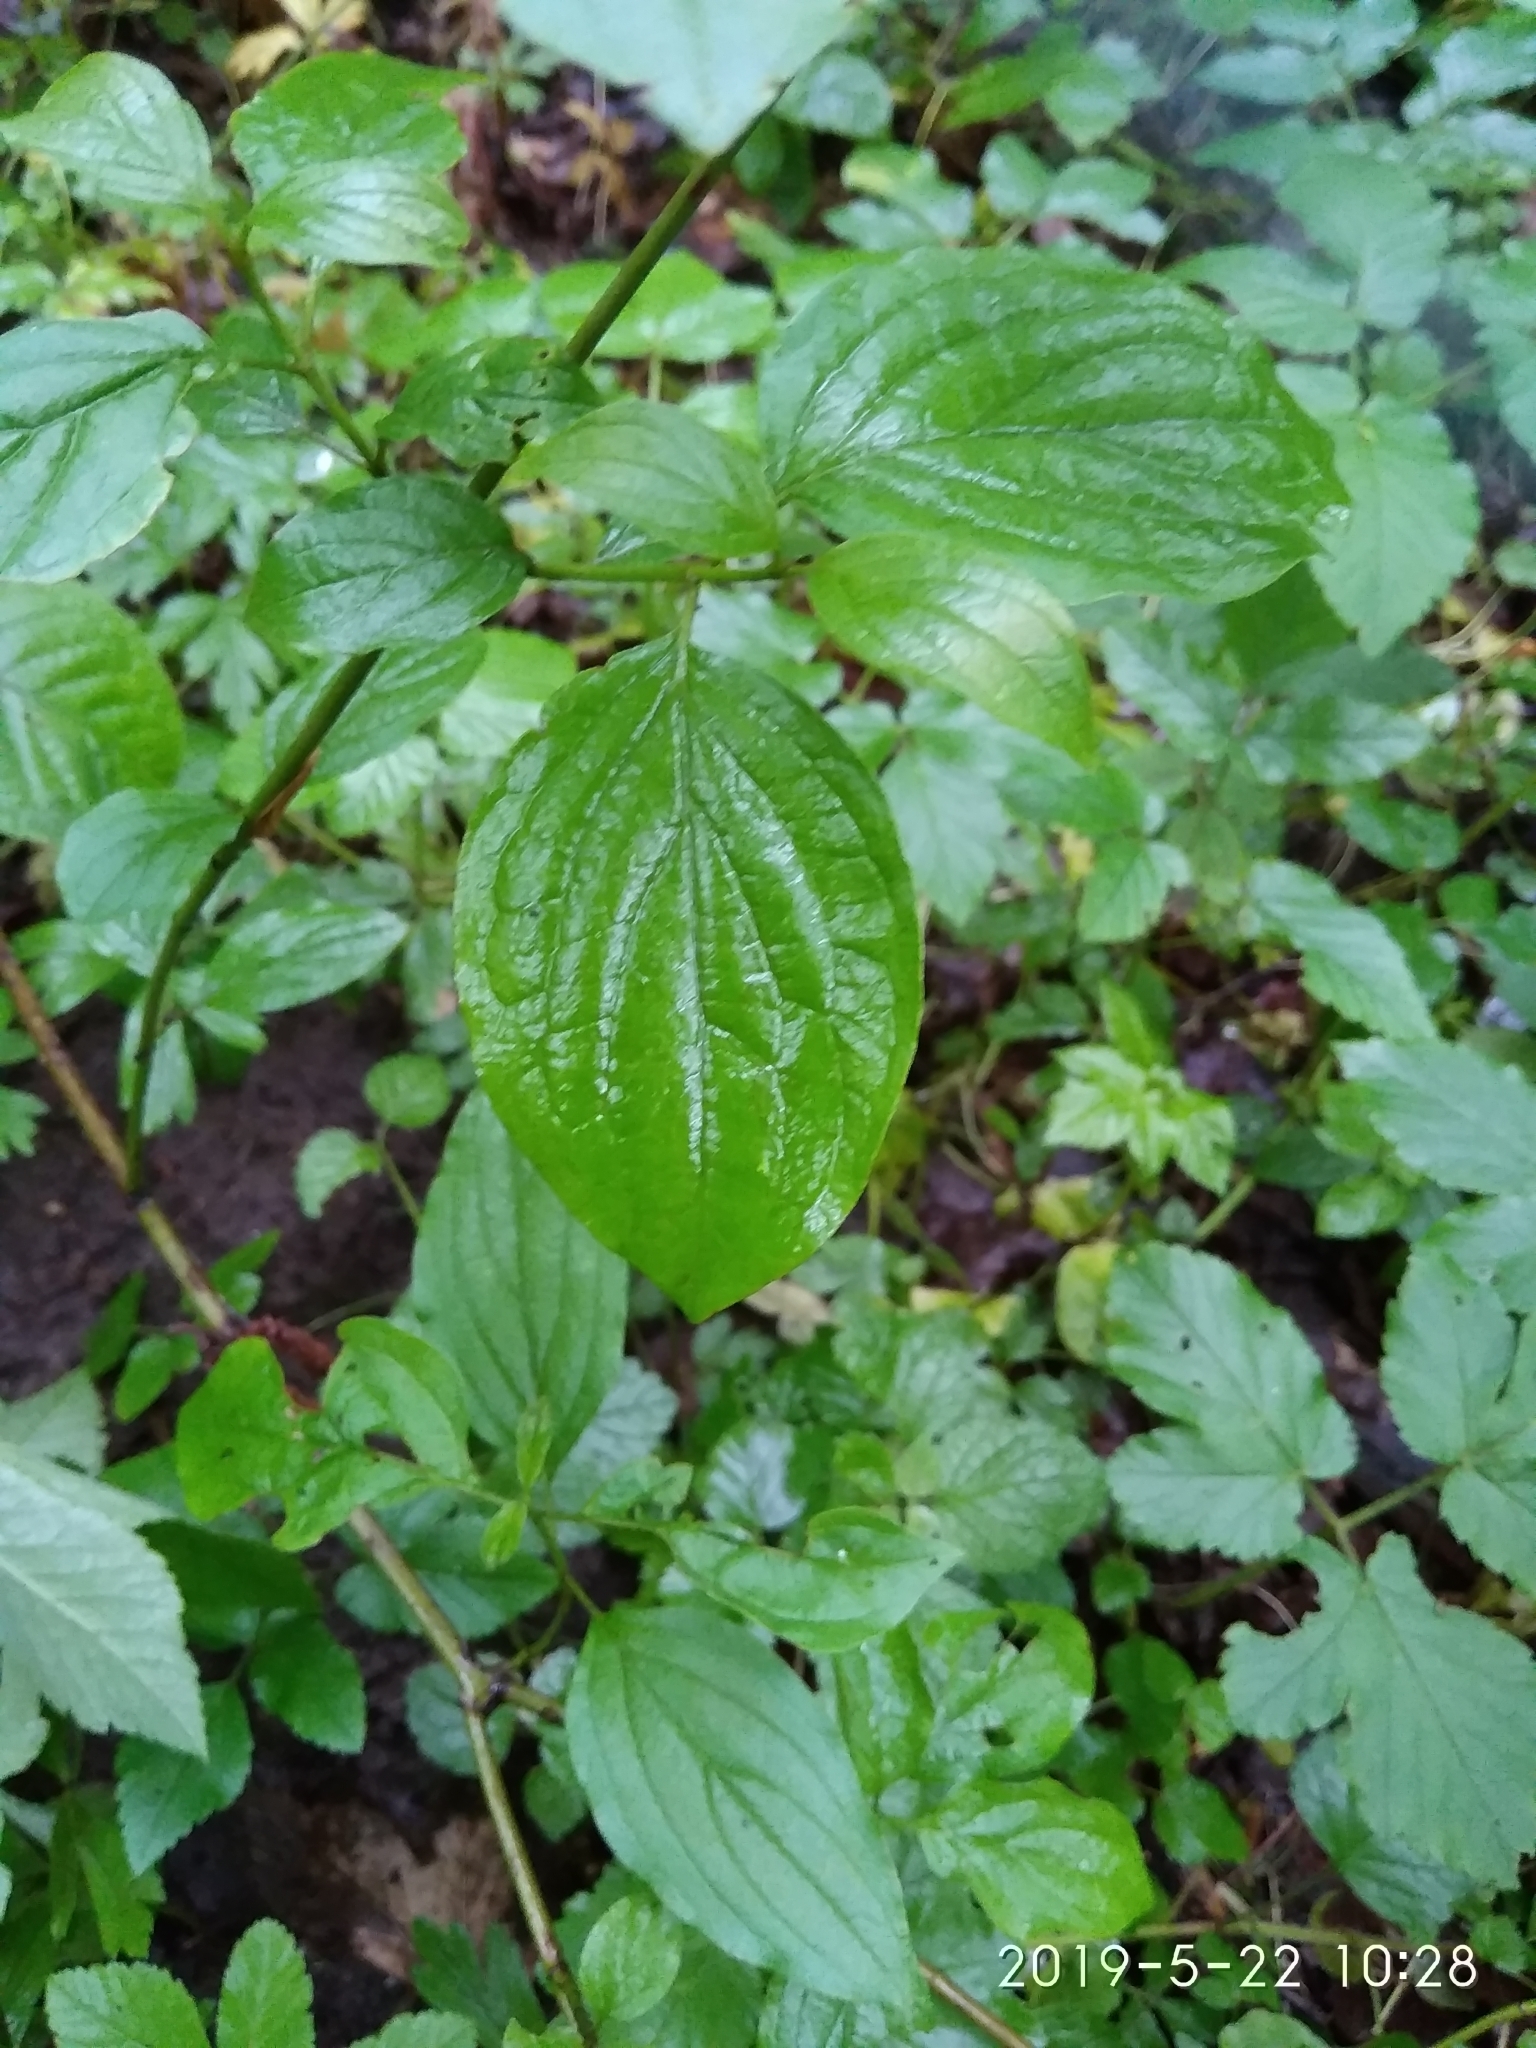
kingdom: Plantae
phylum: Tracheophyta
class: Magnoliopsida
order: Cornales
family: Cornaceae
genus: Cornus
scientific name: Cornus sanguinea
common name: Dogwood
